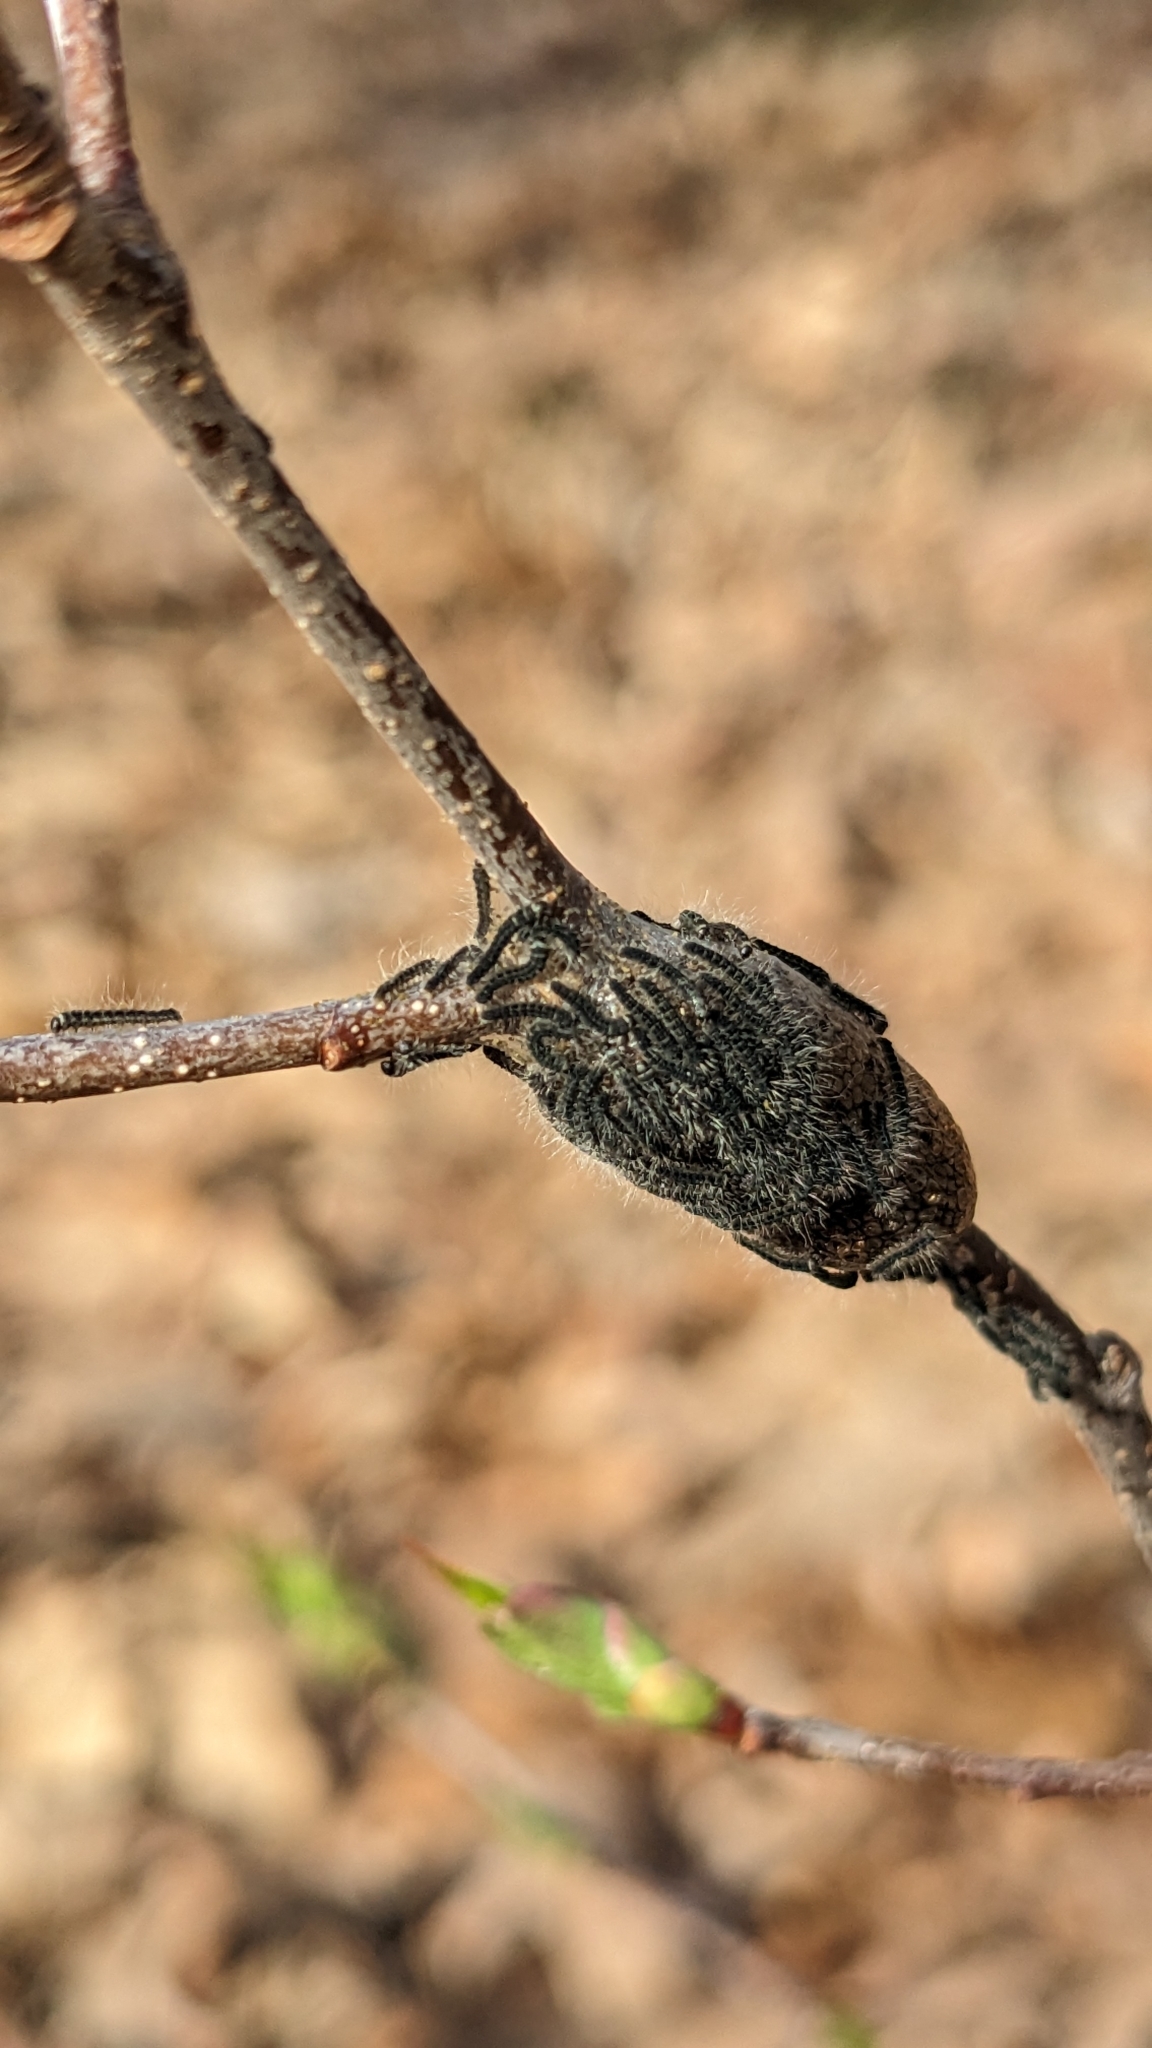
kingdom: Animalia
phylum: Arthropoda
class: Insecta
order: Lepidoptera
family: Lasiocampidae
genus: Malacosoma
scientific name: Malacosoma americana
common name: Eastern tent caterpillar moth
